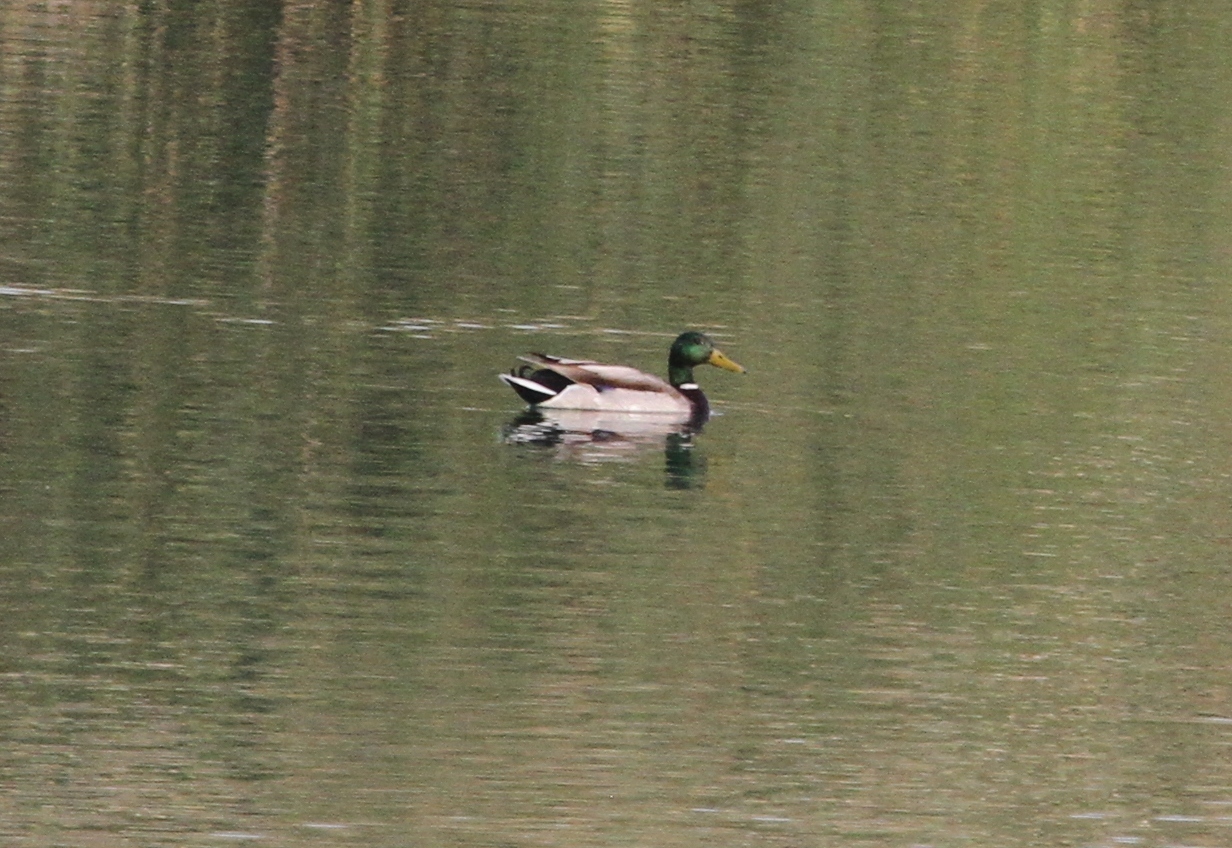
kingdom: Animalia
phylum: Chordata
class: Aves
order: Anseriformes
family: Anatidae
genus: Anas
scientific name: Anas platyrhynchos
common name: Mallard
